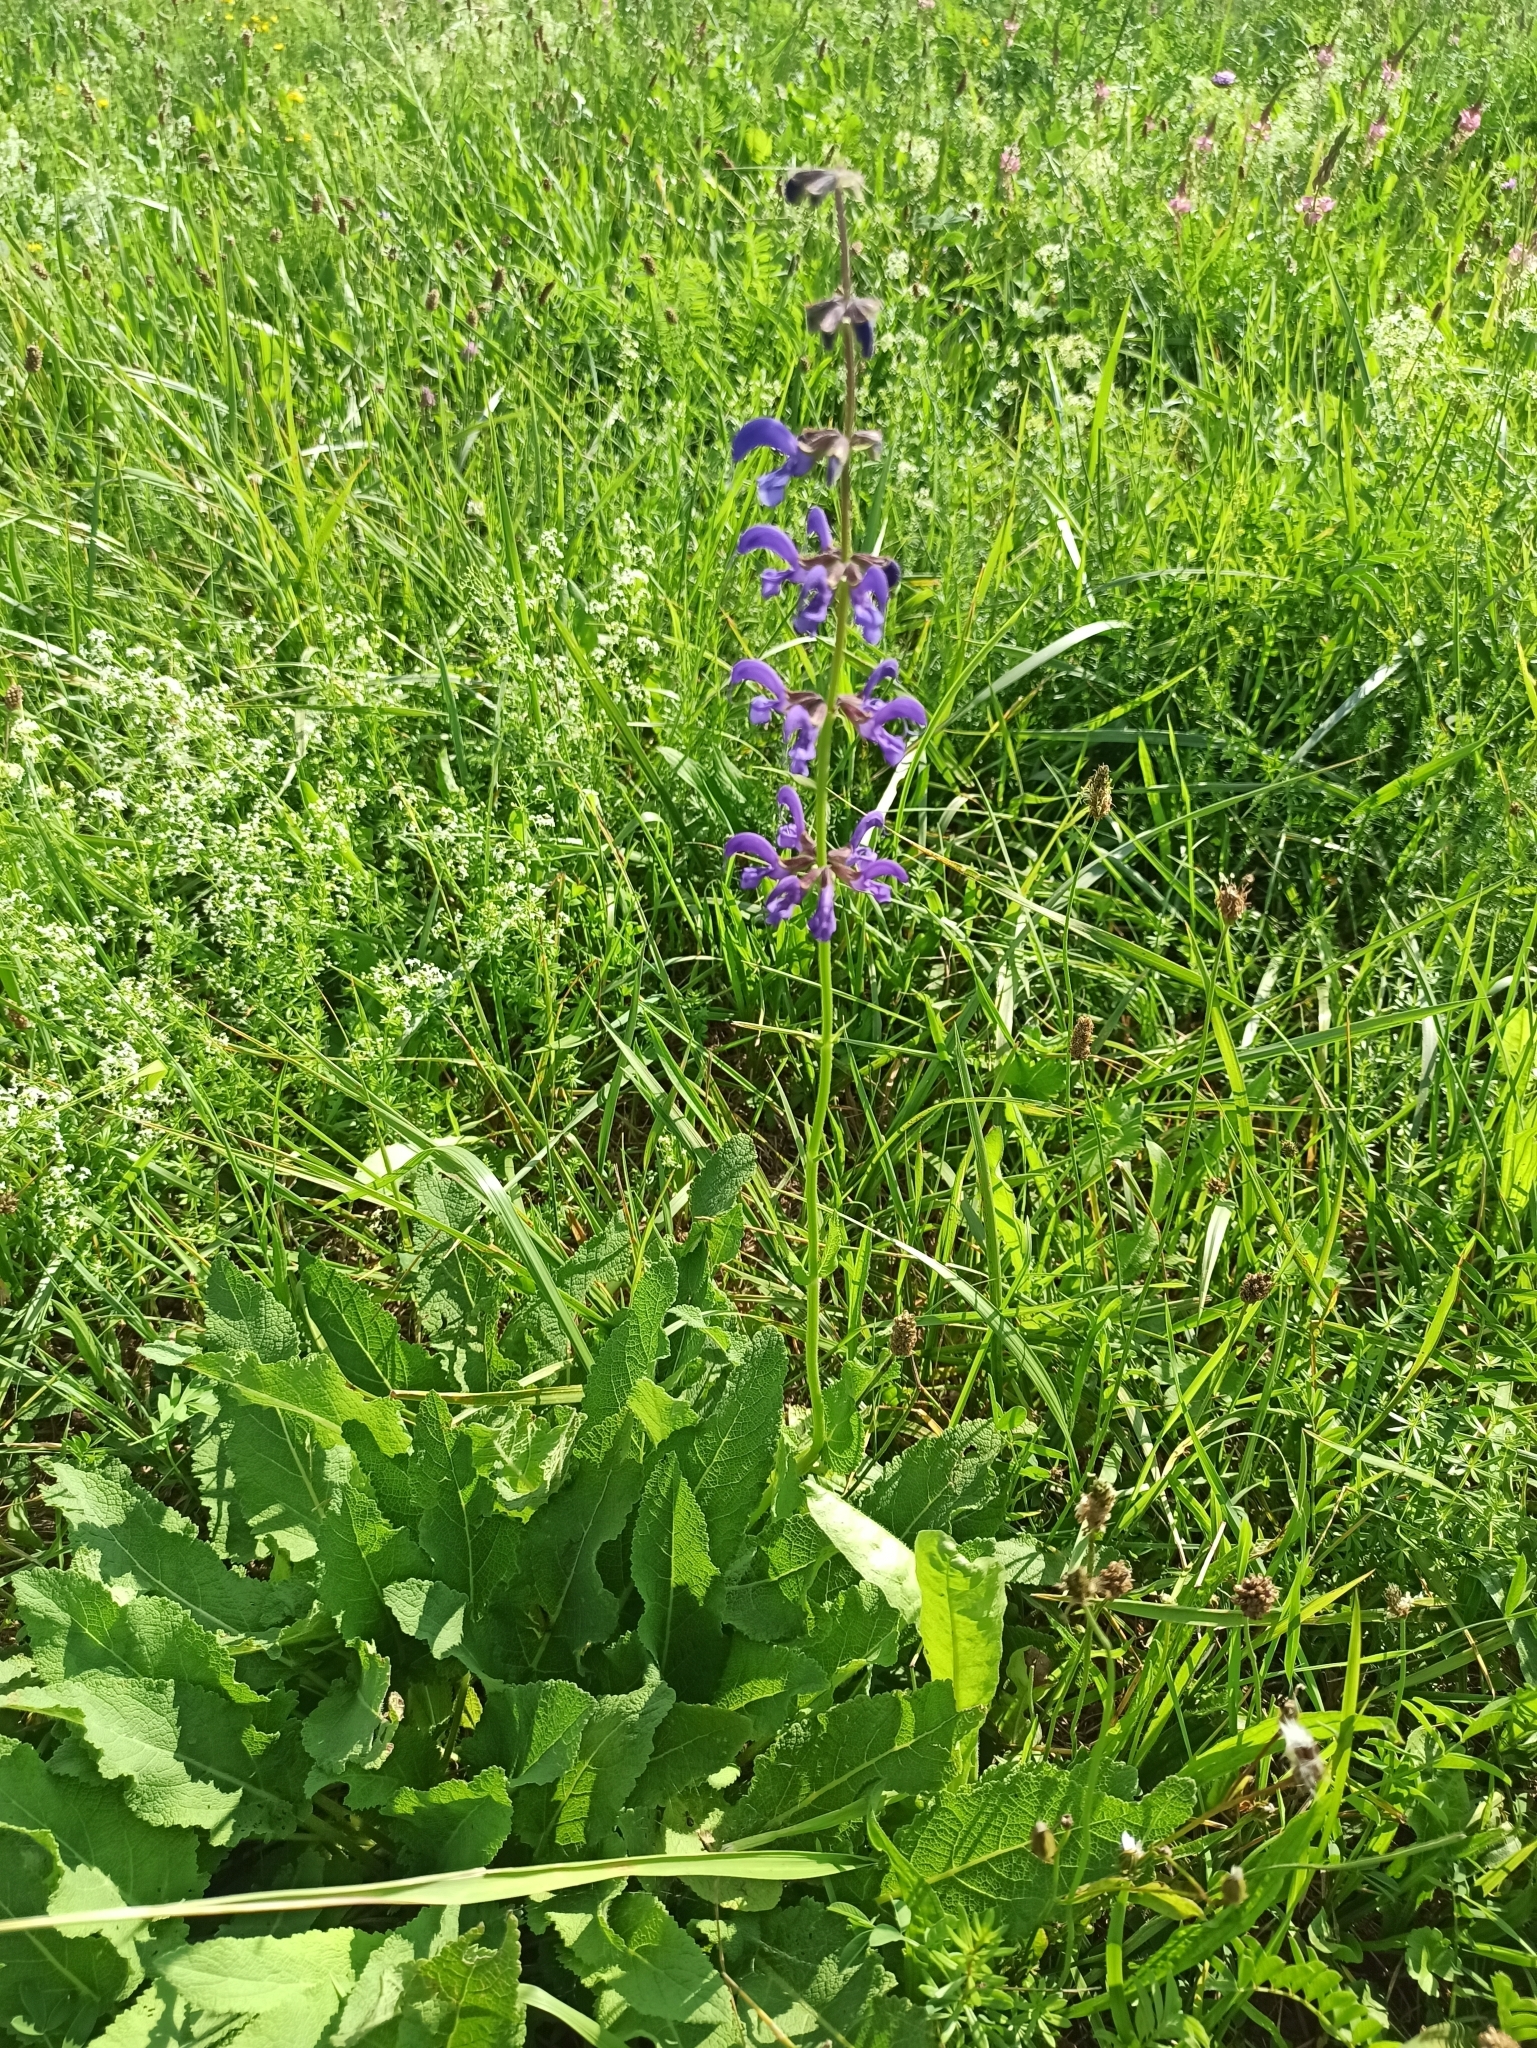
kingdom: Plantae
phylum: Tracheophyta
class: Magnoliopsida
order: Lamiales
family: Lamiaceae
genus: Salvia
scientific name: Salvia pratensis
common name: Meadow sage
